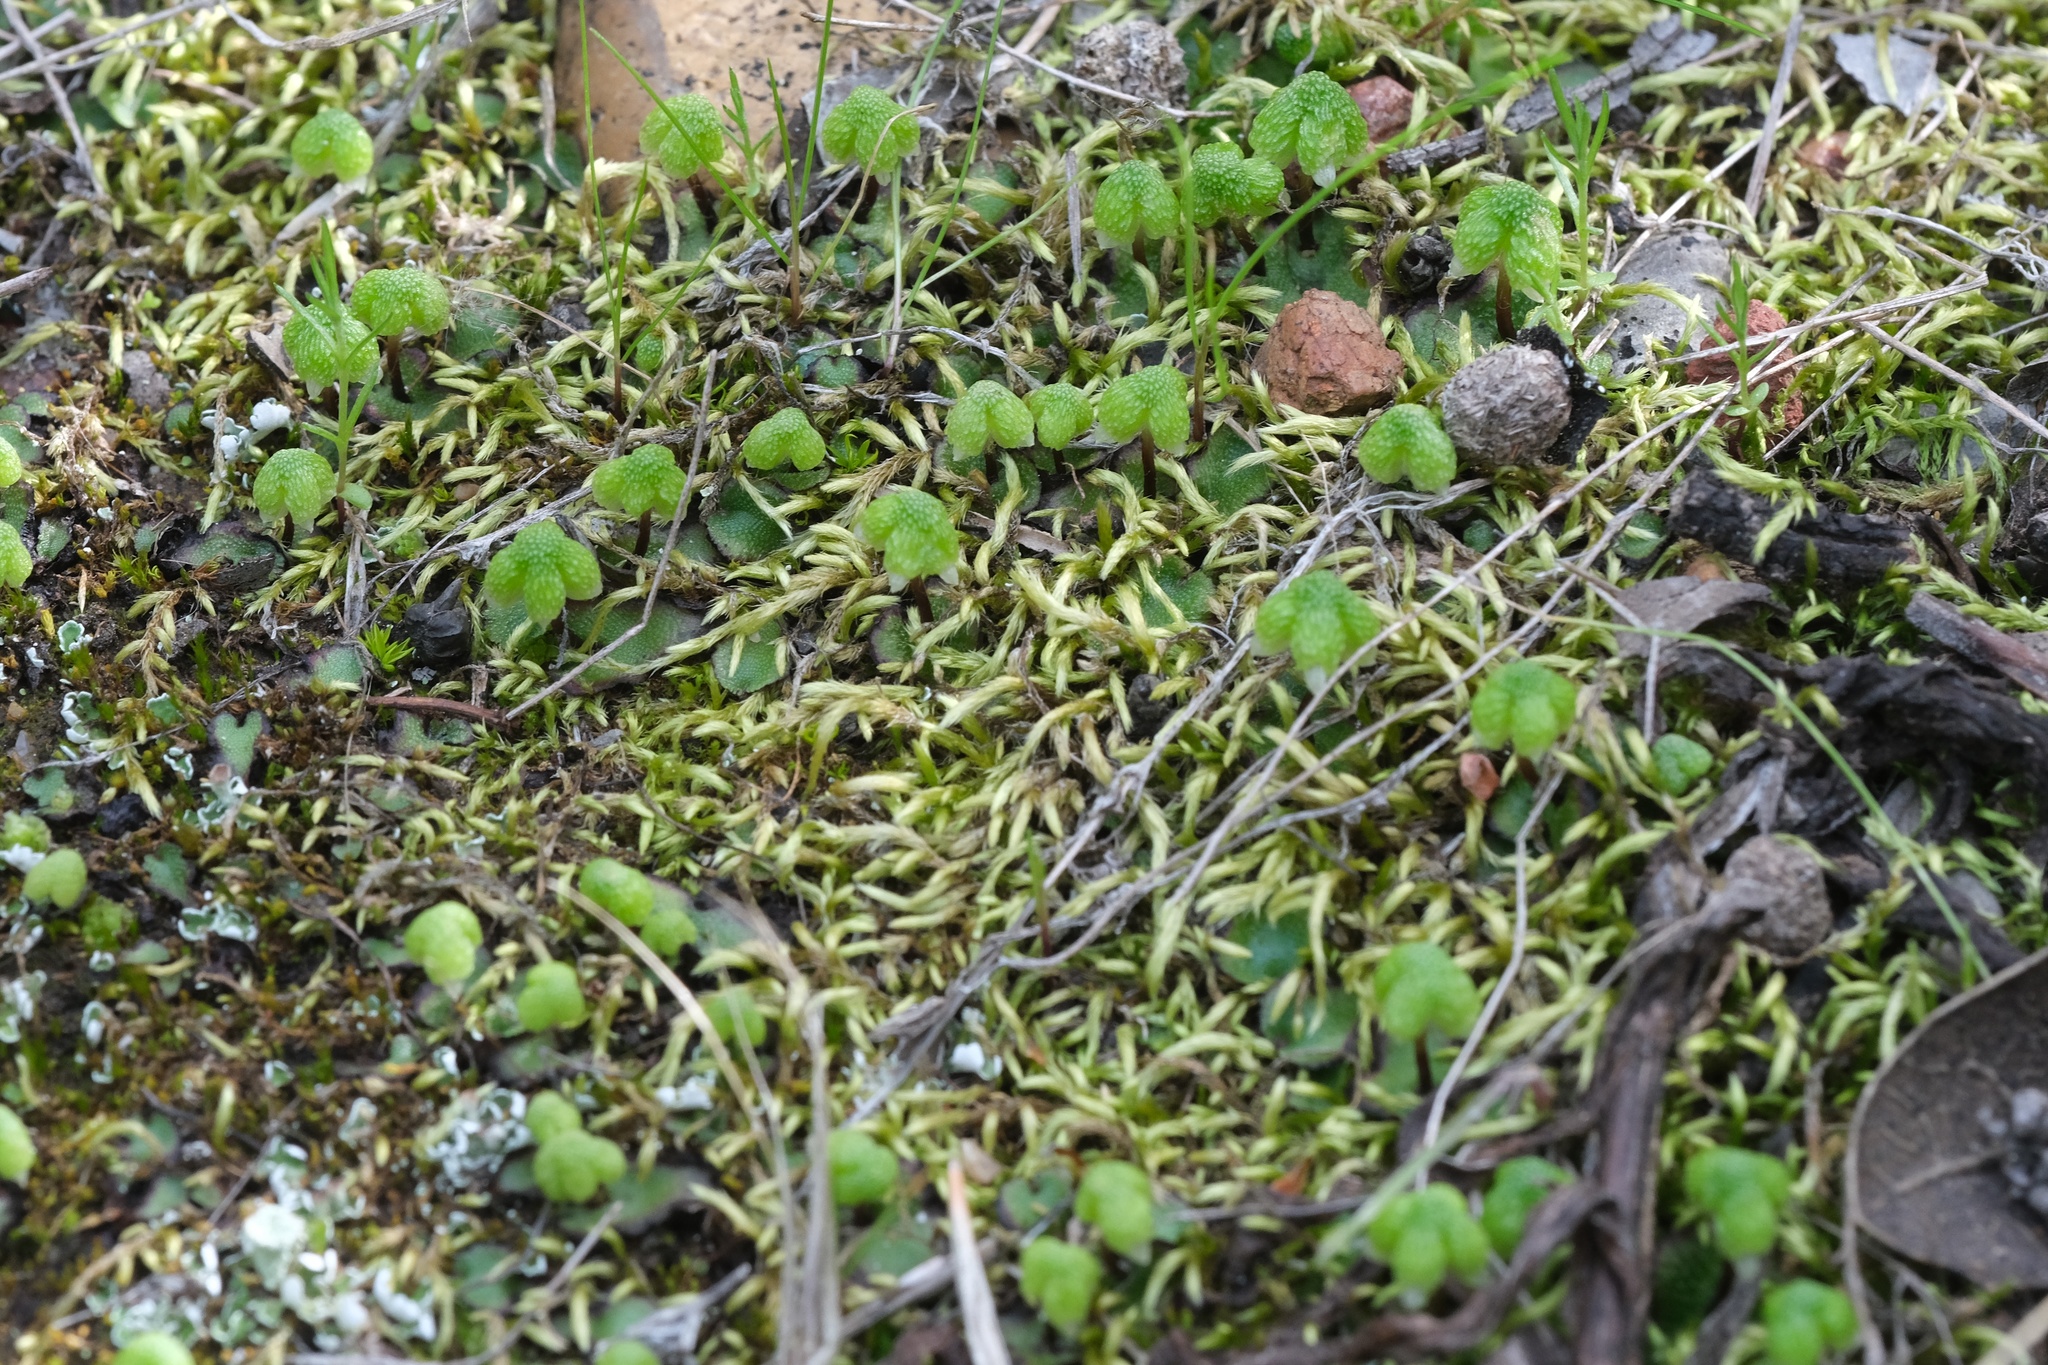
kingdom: Plantae
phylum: Marchantiophyta
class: Marchantiopsida
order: Marchantiales
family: Aytoniaceae
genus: Asterella
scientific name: Asterella californica
